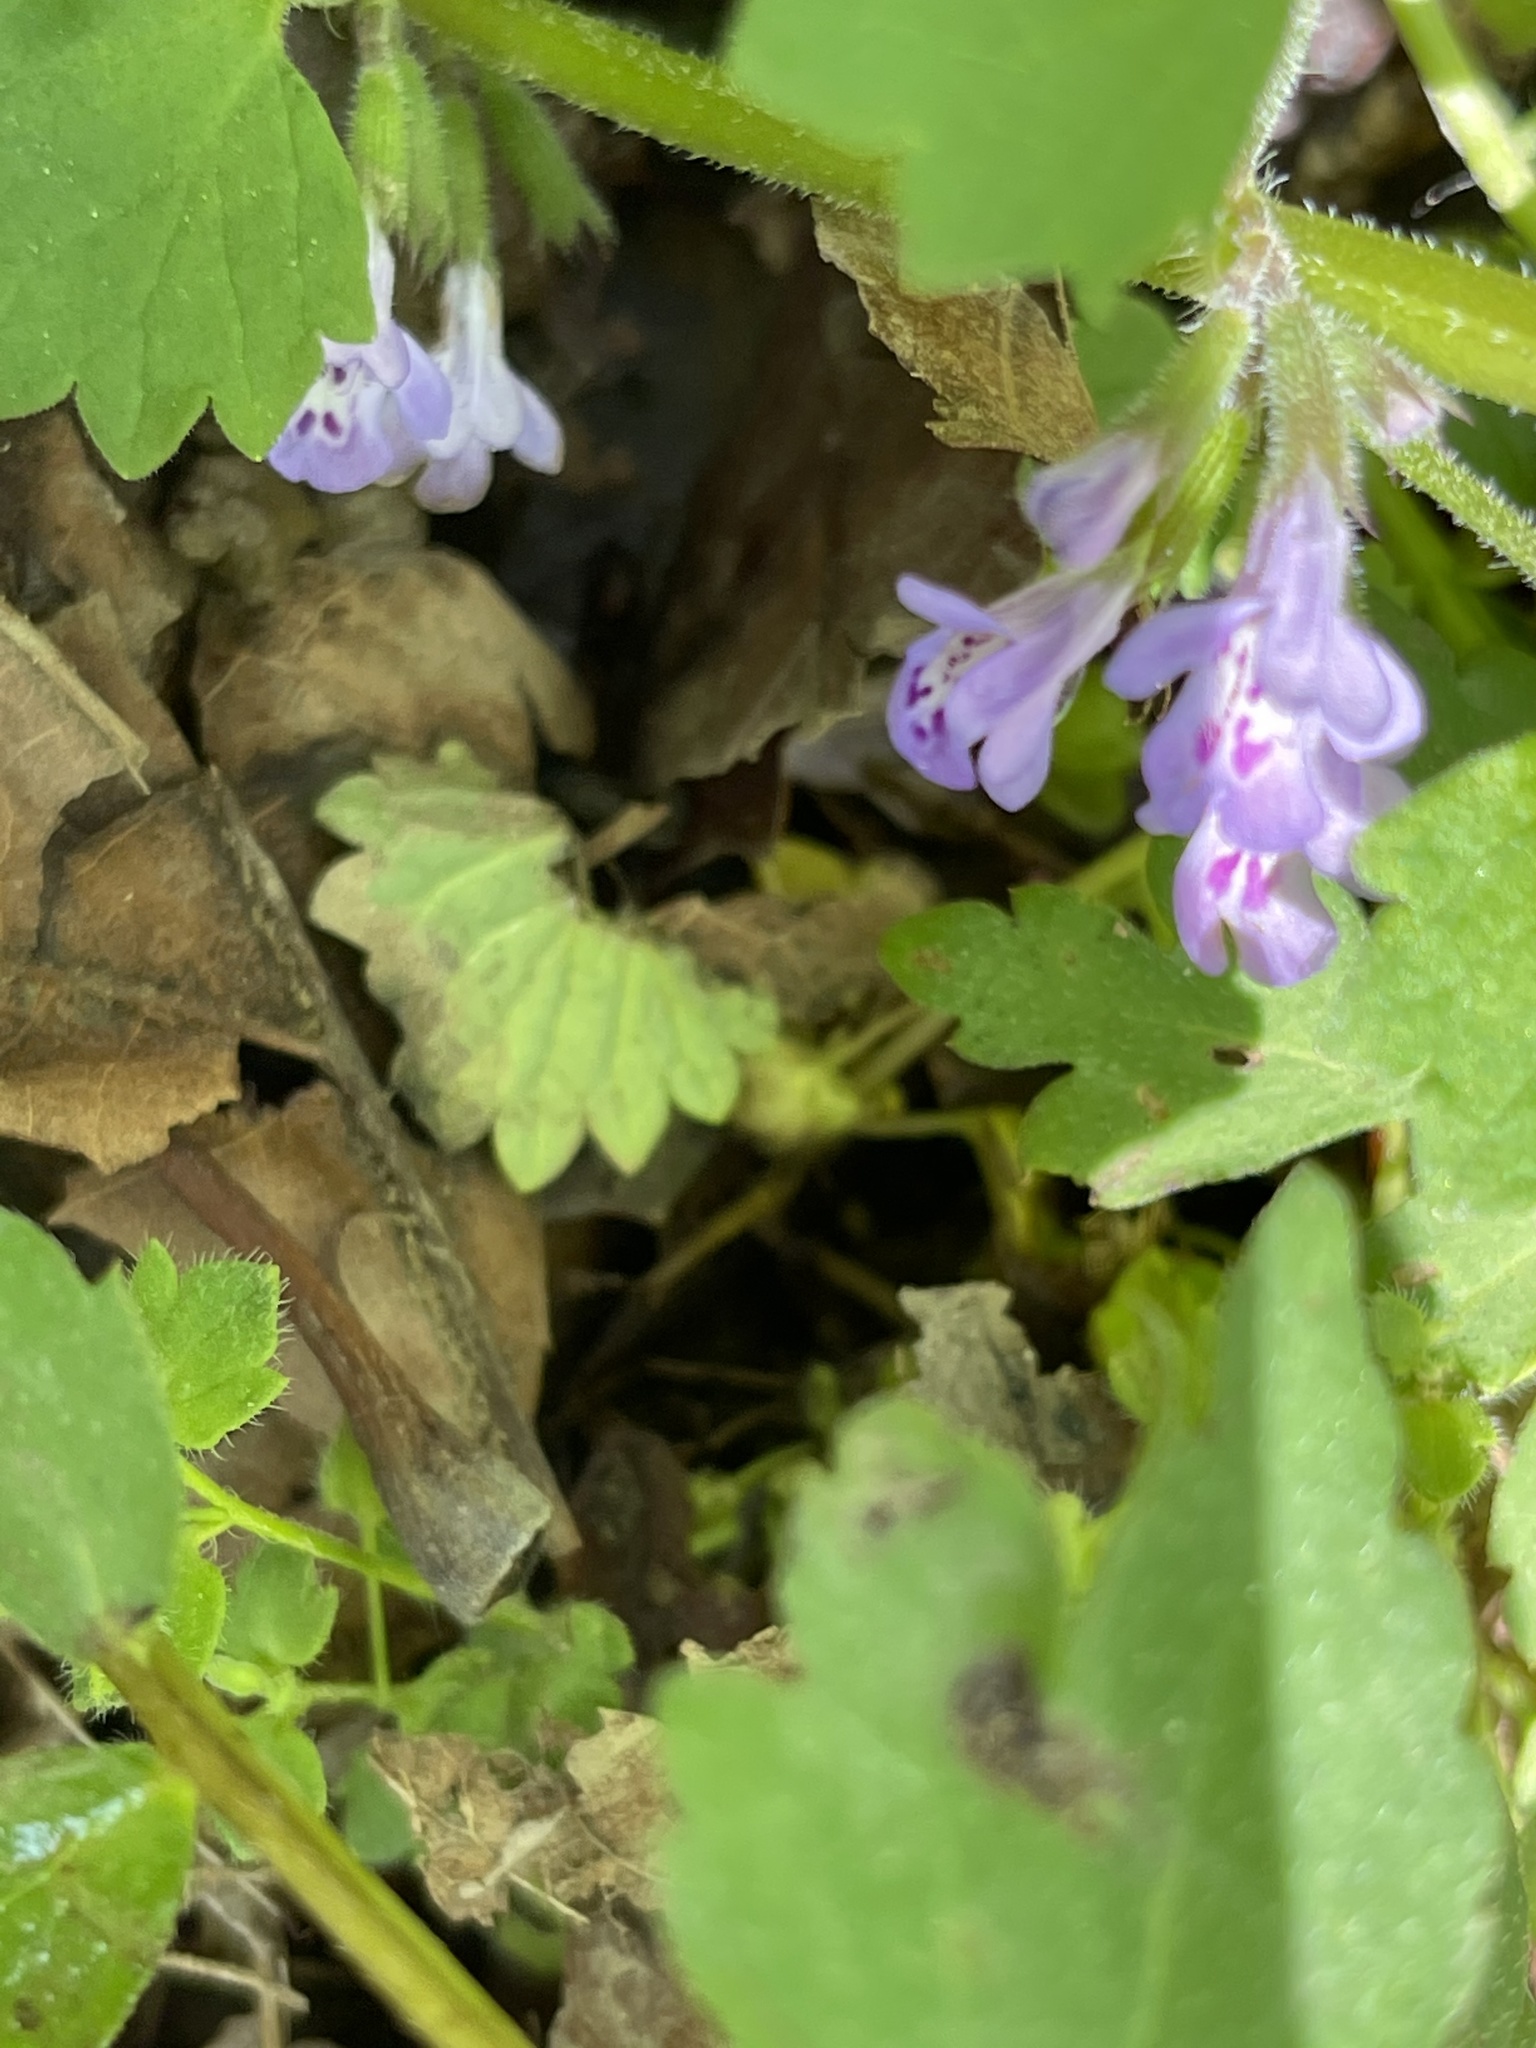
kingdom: Plantae
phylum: Tracheophyta
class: Magnoliopsida
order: Lamiales
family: Lamiaceae
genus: Glechoma
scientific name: Glechoma hederacea
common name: Ground ivy
